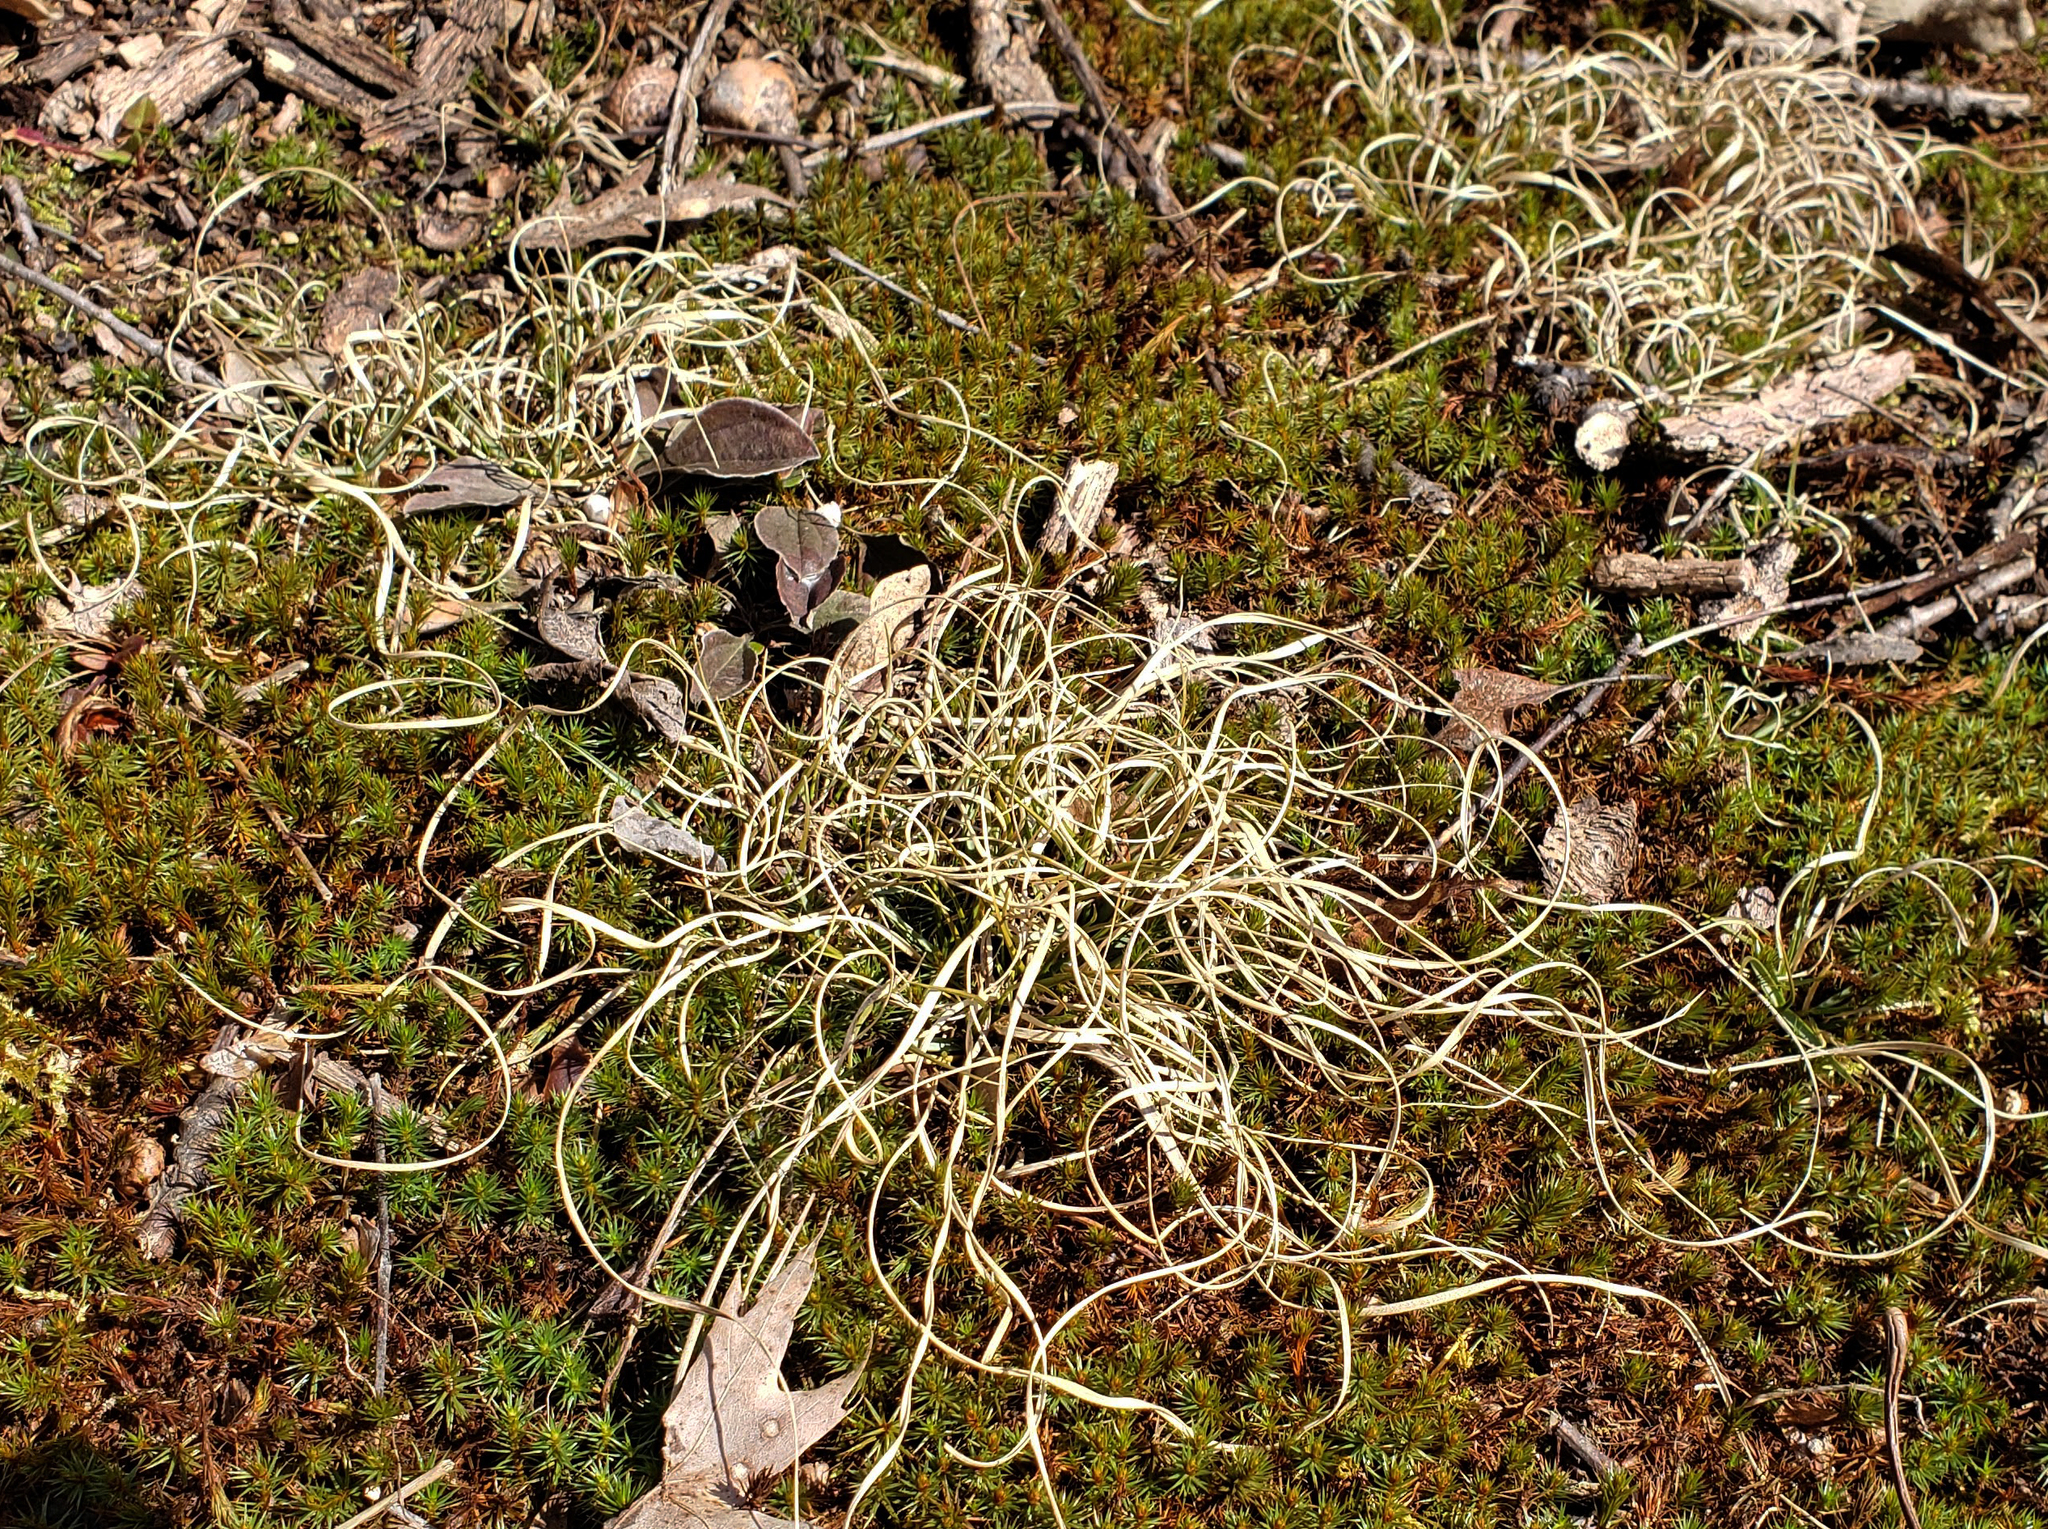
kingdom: Plantae
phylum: Tracheophyta
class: Liliopsida
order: Poales
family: Poaceae
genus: Danthonia
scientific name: Danthonia spicata
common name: Common wild oatgrass
